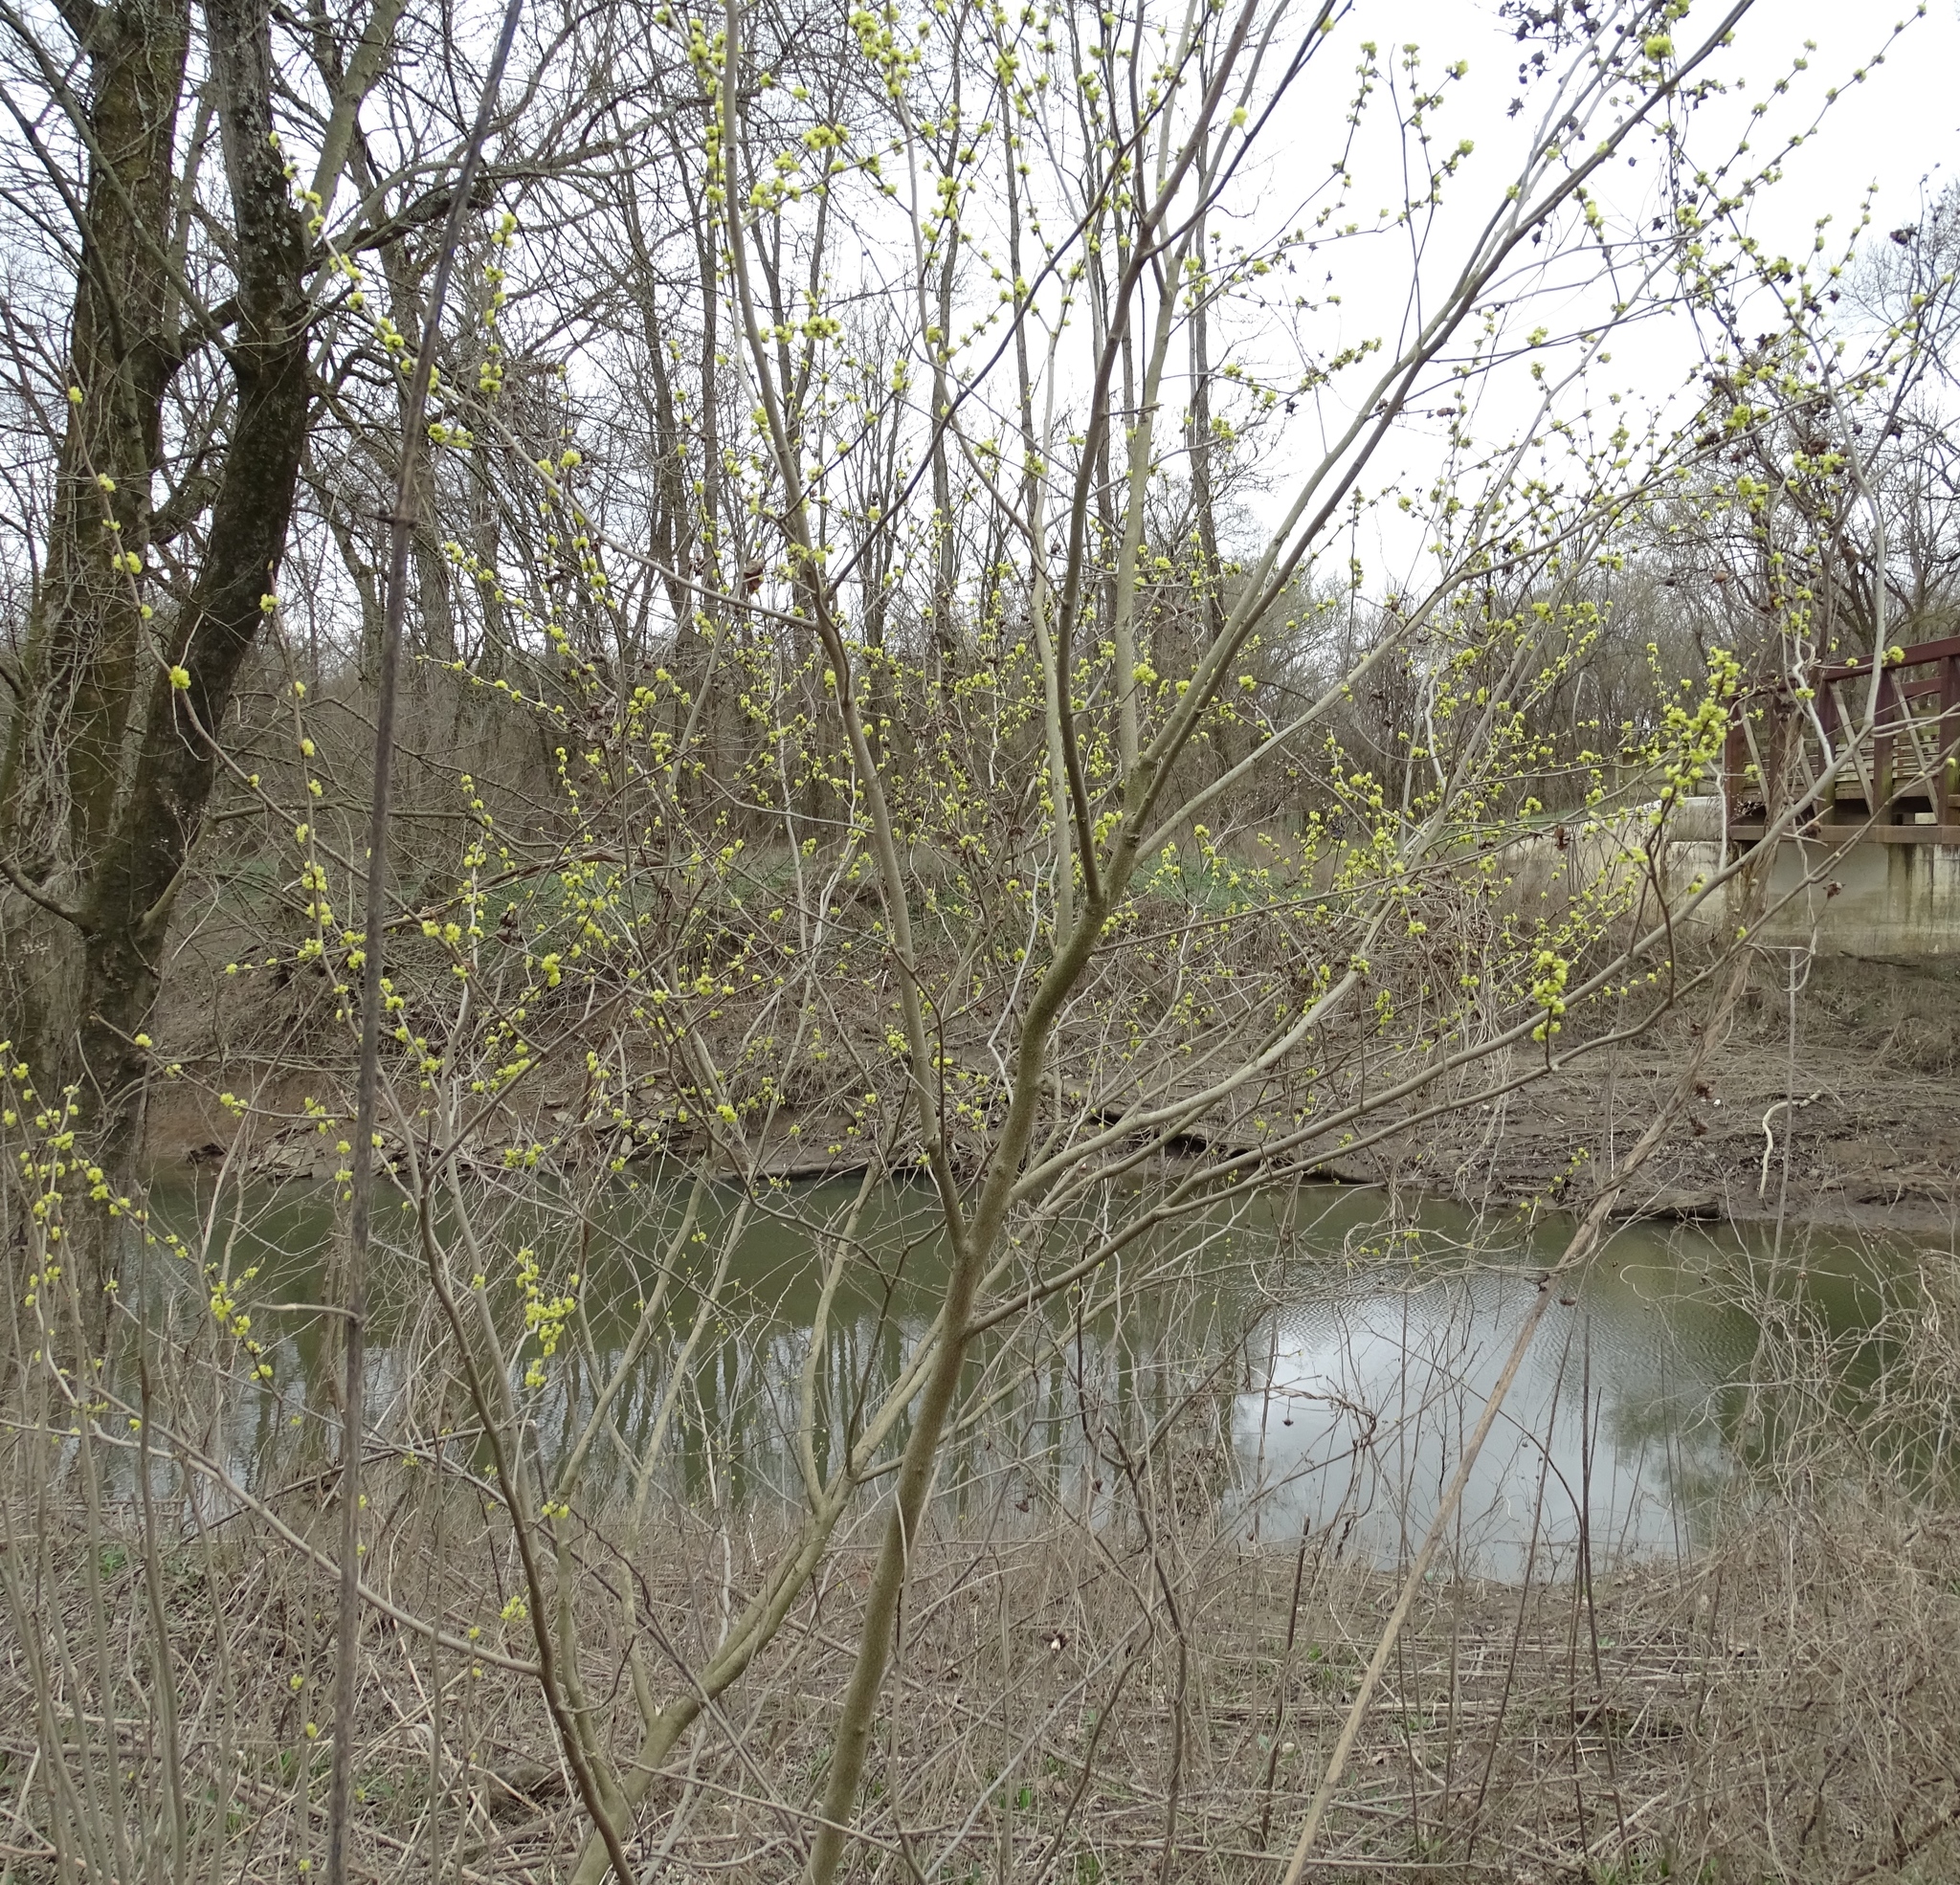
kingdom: Plantae
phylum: Tracheophyta
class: Magnoliopsida
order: Laurales
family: Lauraceae
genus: Lindera
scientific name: Lindera benzoin
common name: Spicebush
